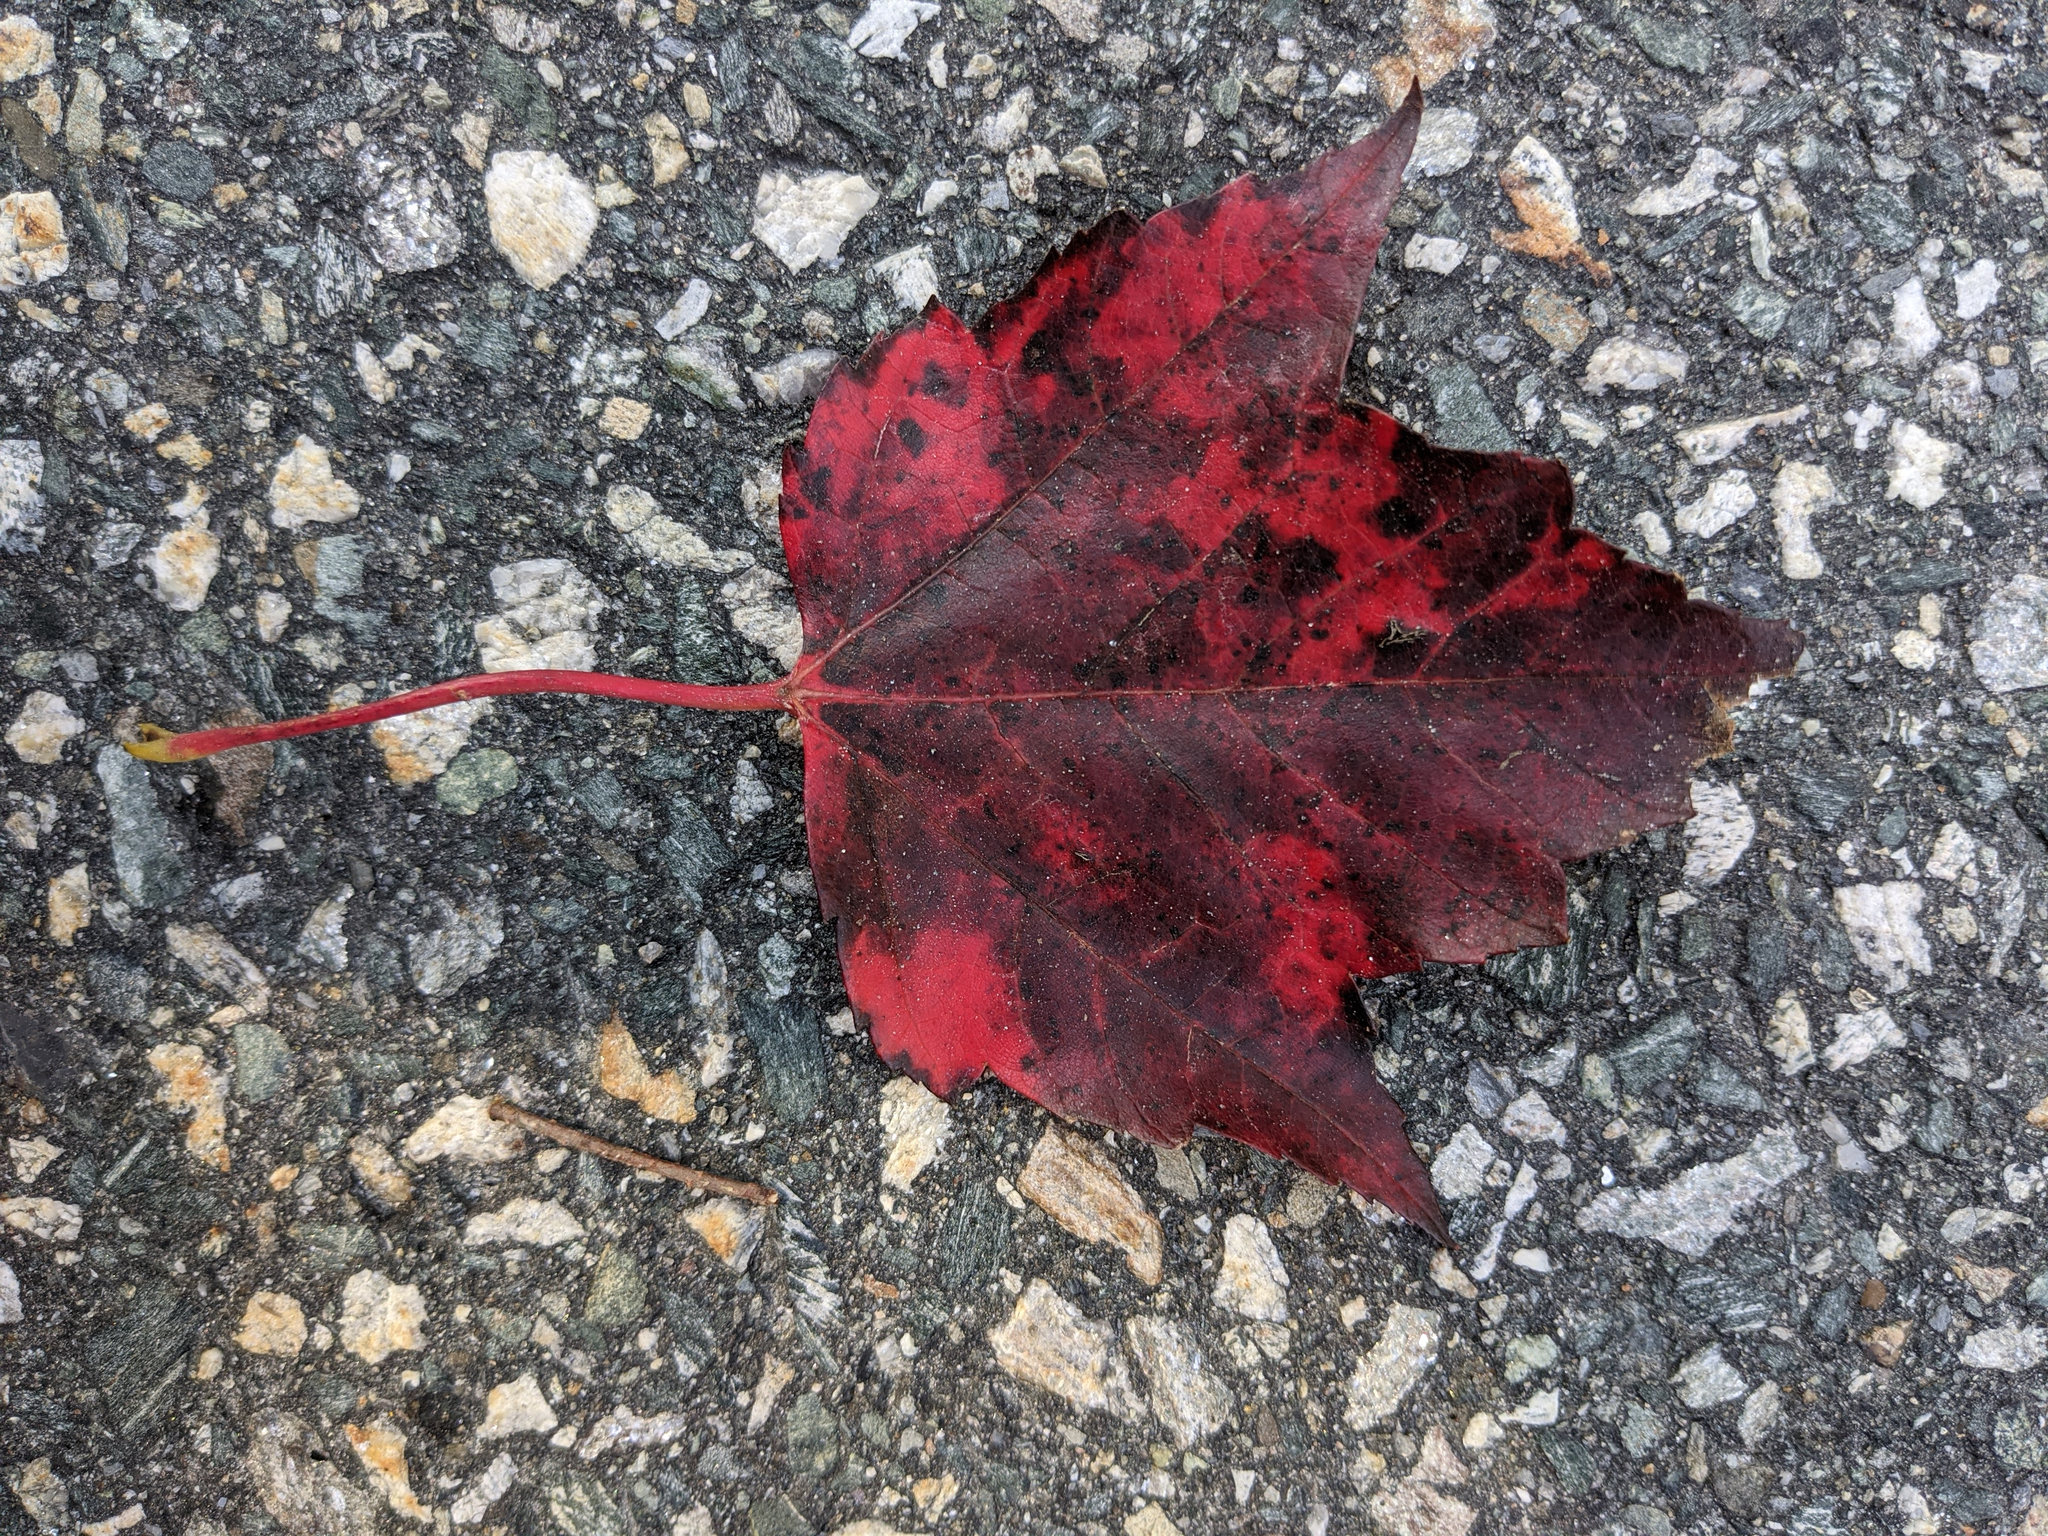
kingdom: Plantae
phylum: Tracheophyta
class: Magnoliopsida
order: Sapindales
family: Sapindaceae
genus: Acer
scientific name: Acer rubrum
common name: Red maple
